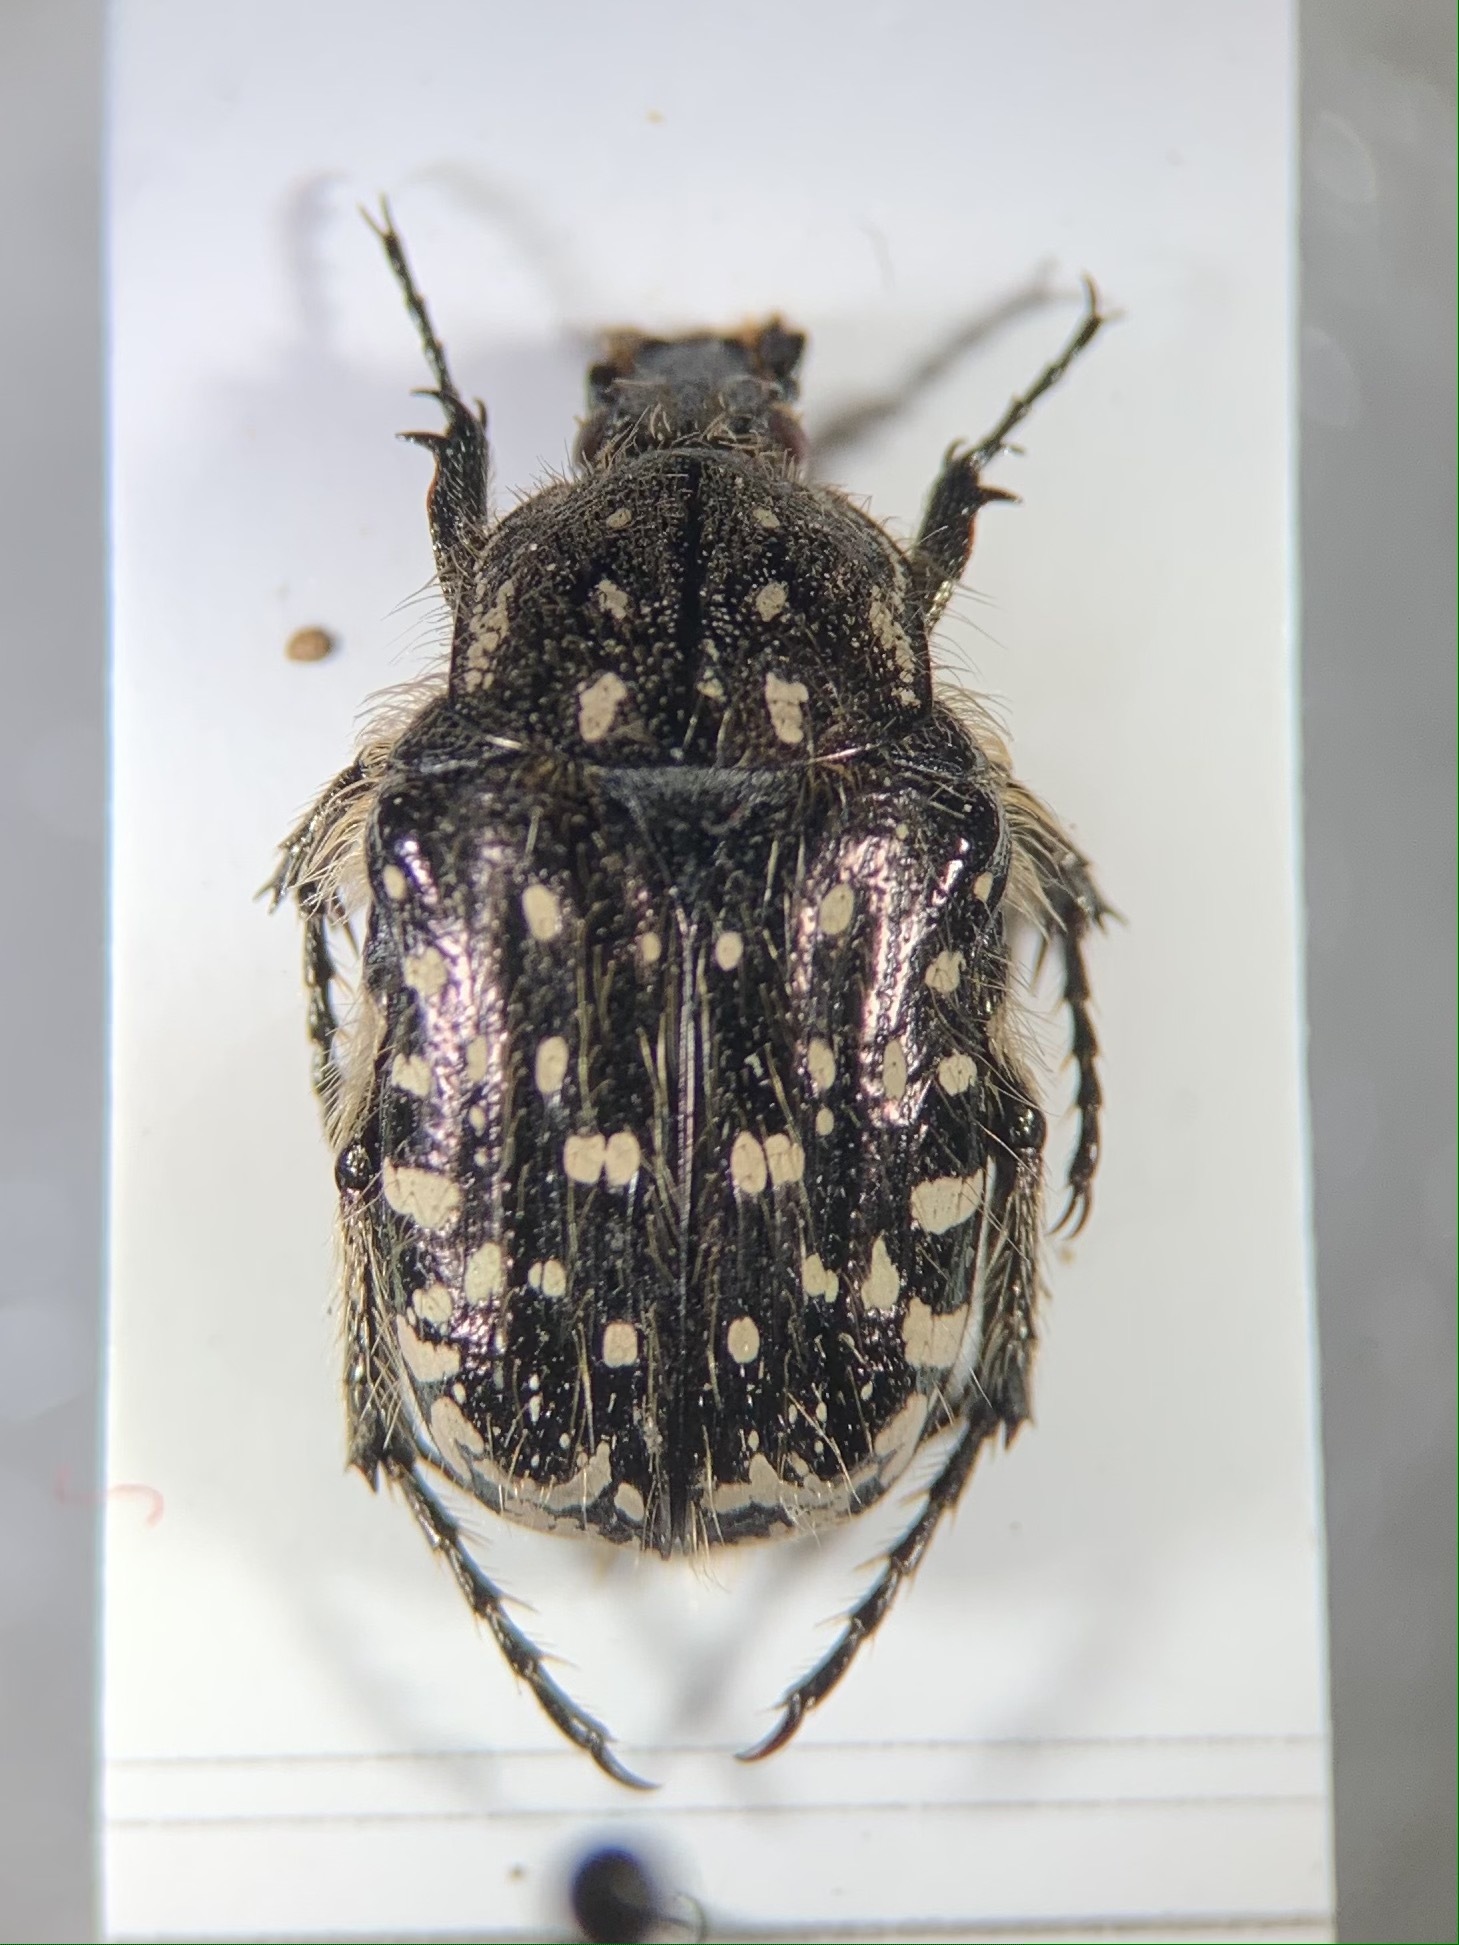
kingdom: Animalia
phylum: Arthropoda
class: Insecta
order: Coleoptera
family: Scarabaeidae
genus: Oxythyrea
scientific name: Oxythyrea funesta
